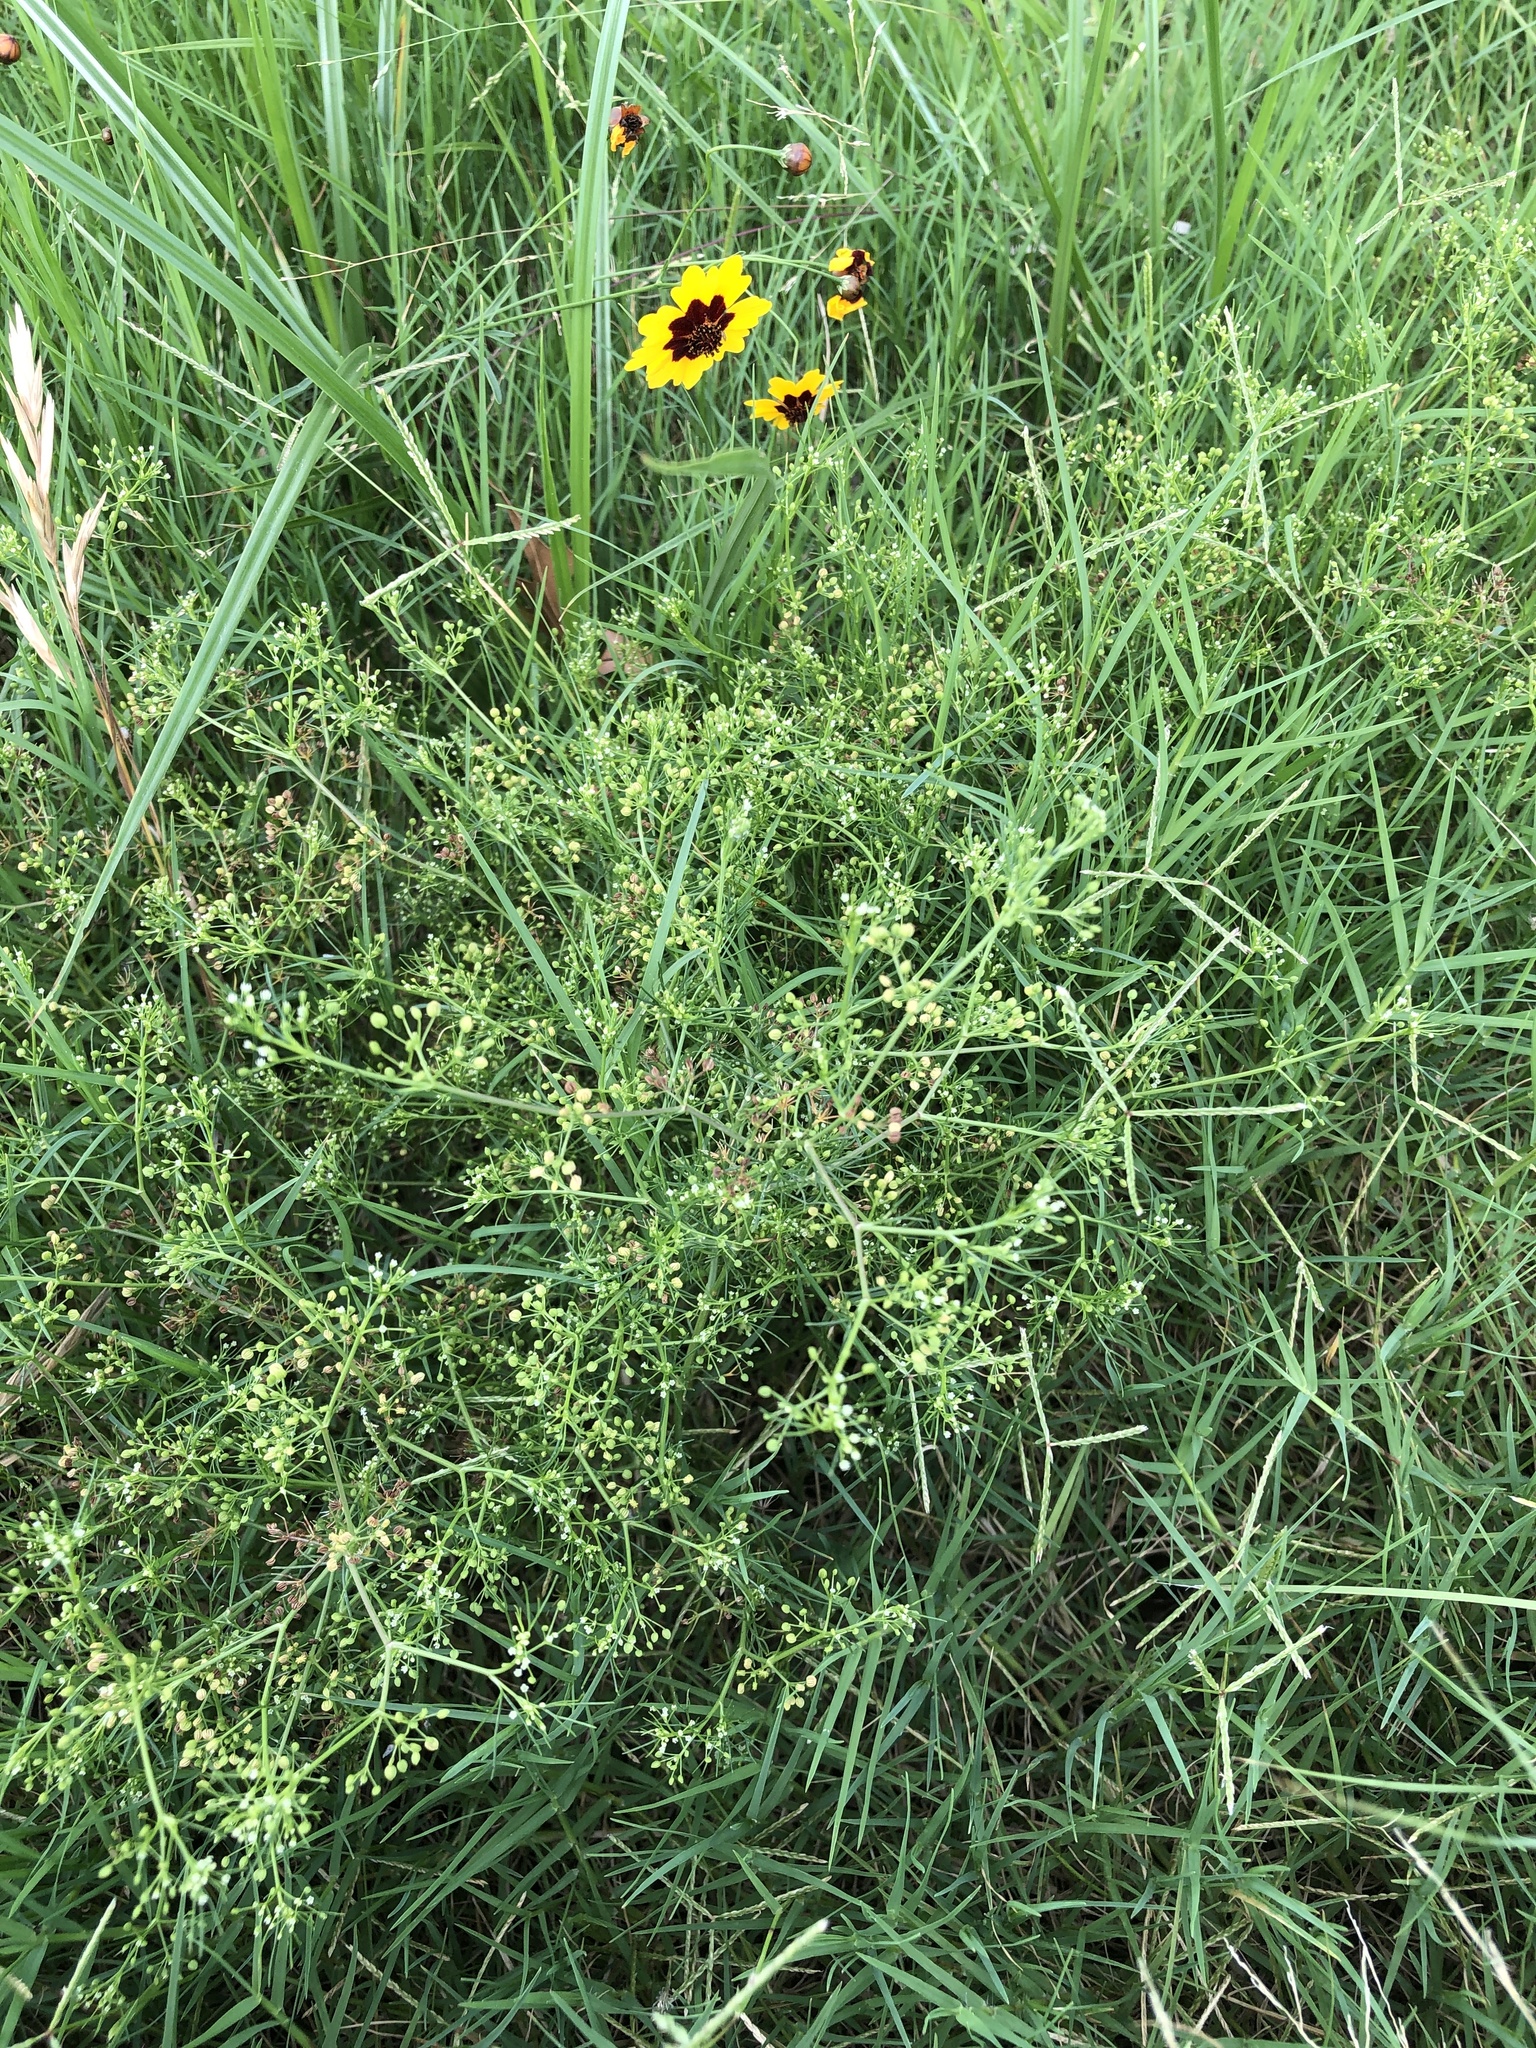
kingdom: Plantae
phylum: Tracheophyta
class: Magnoliopsida
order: Apiales
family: Apiaceae
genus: Cyclospermum
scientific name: Cyclospermum leptophyllum
